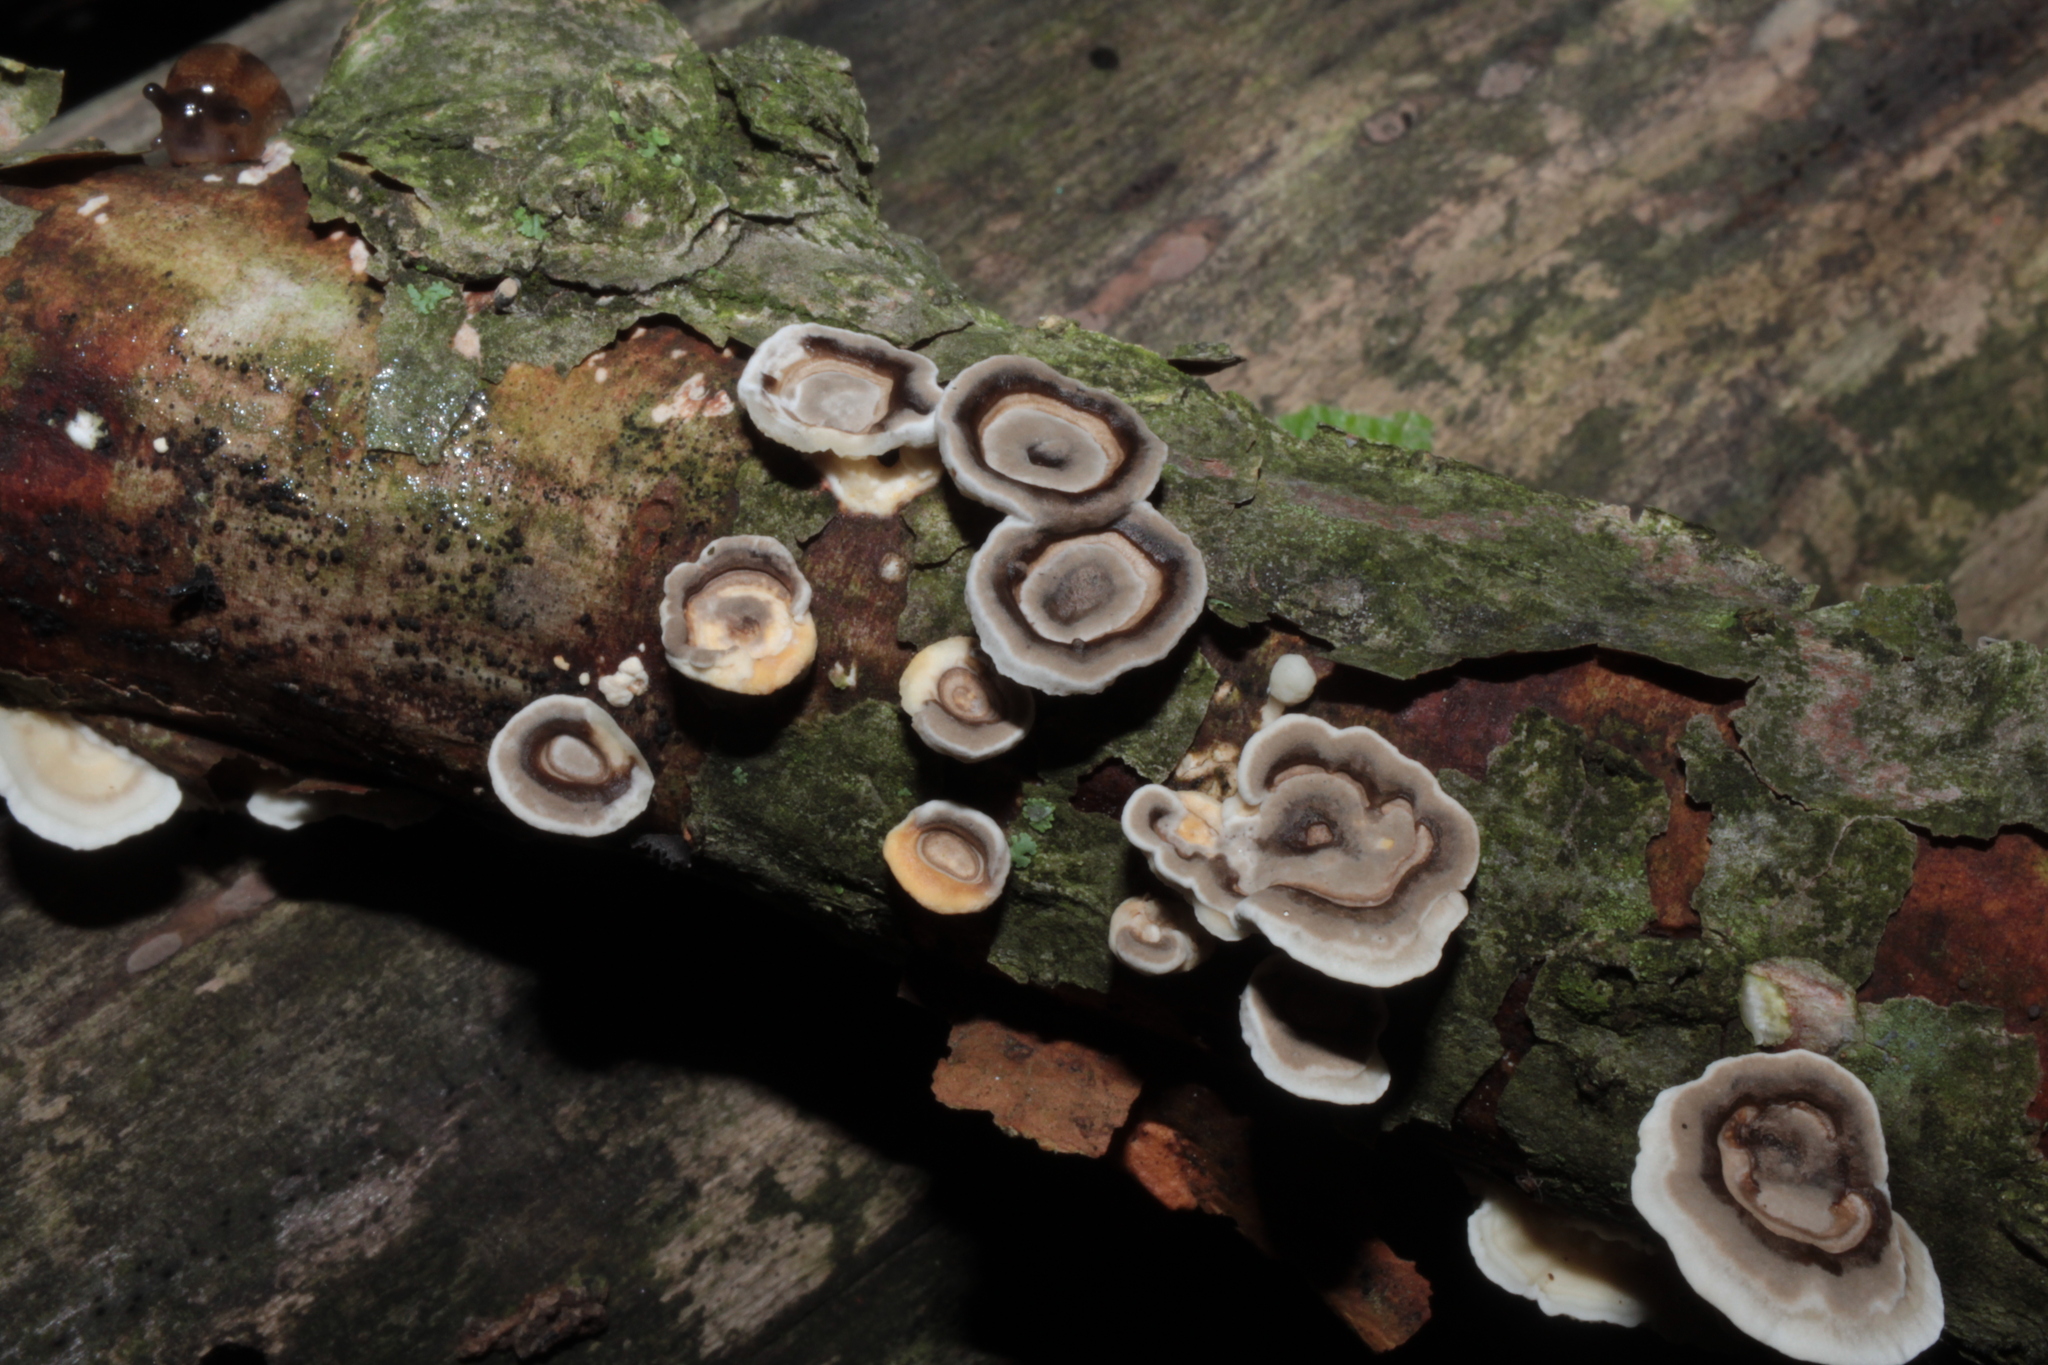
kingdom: Fungi
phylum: Basidiomycota
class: Agaricomycetes
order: Polyporales
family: Polyporaceae
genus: Poronidulus
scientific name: Poronidulus conchifer
